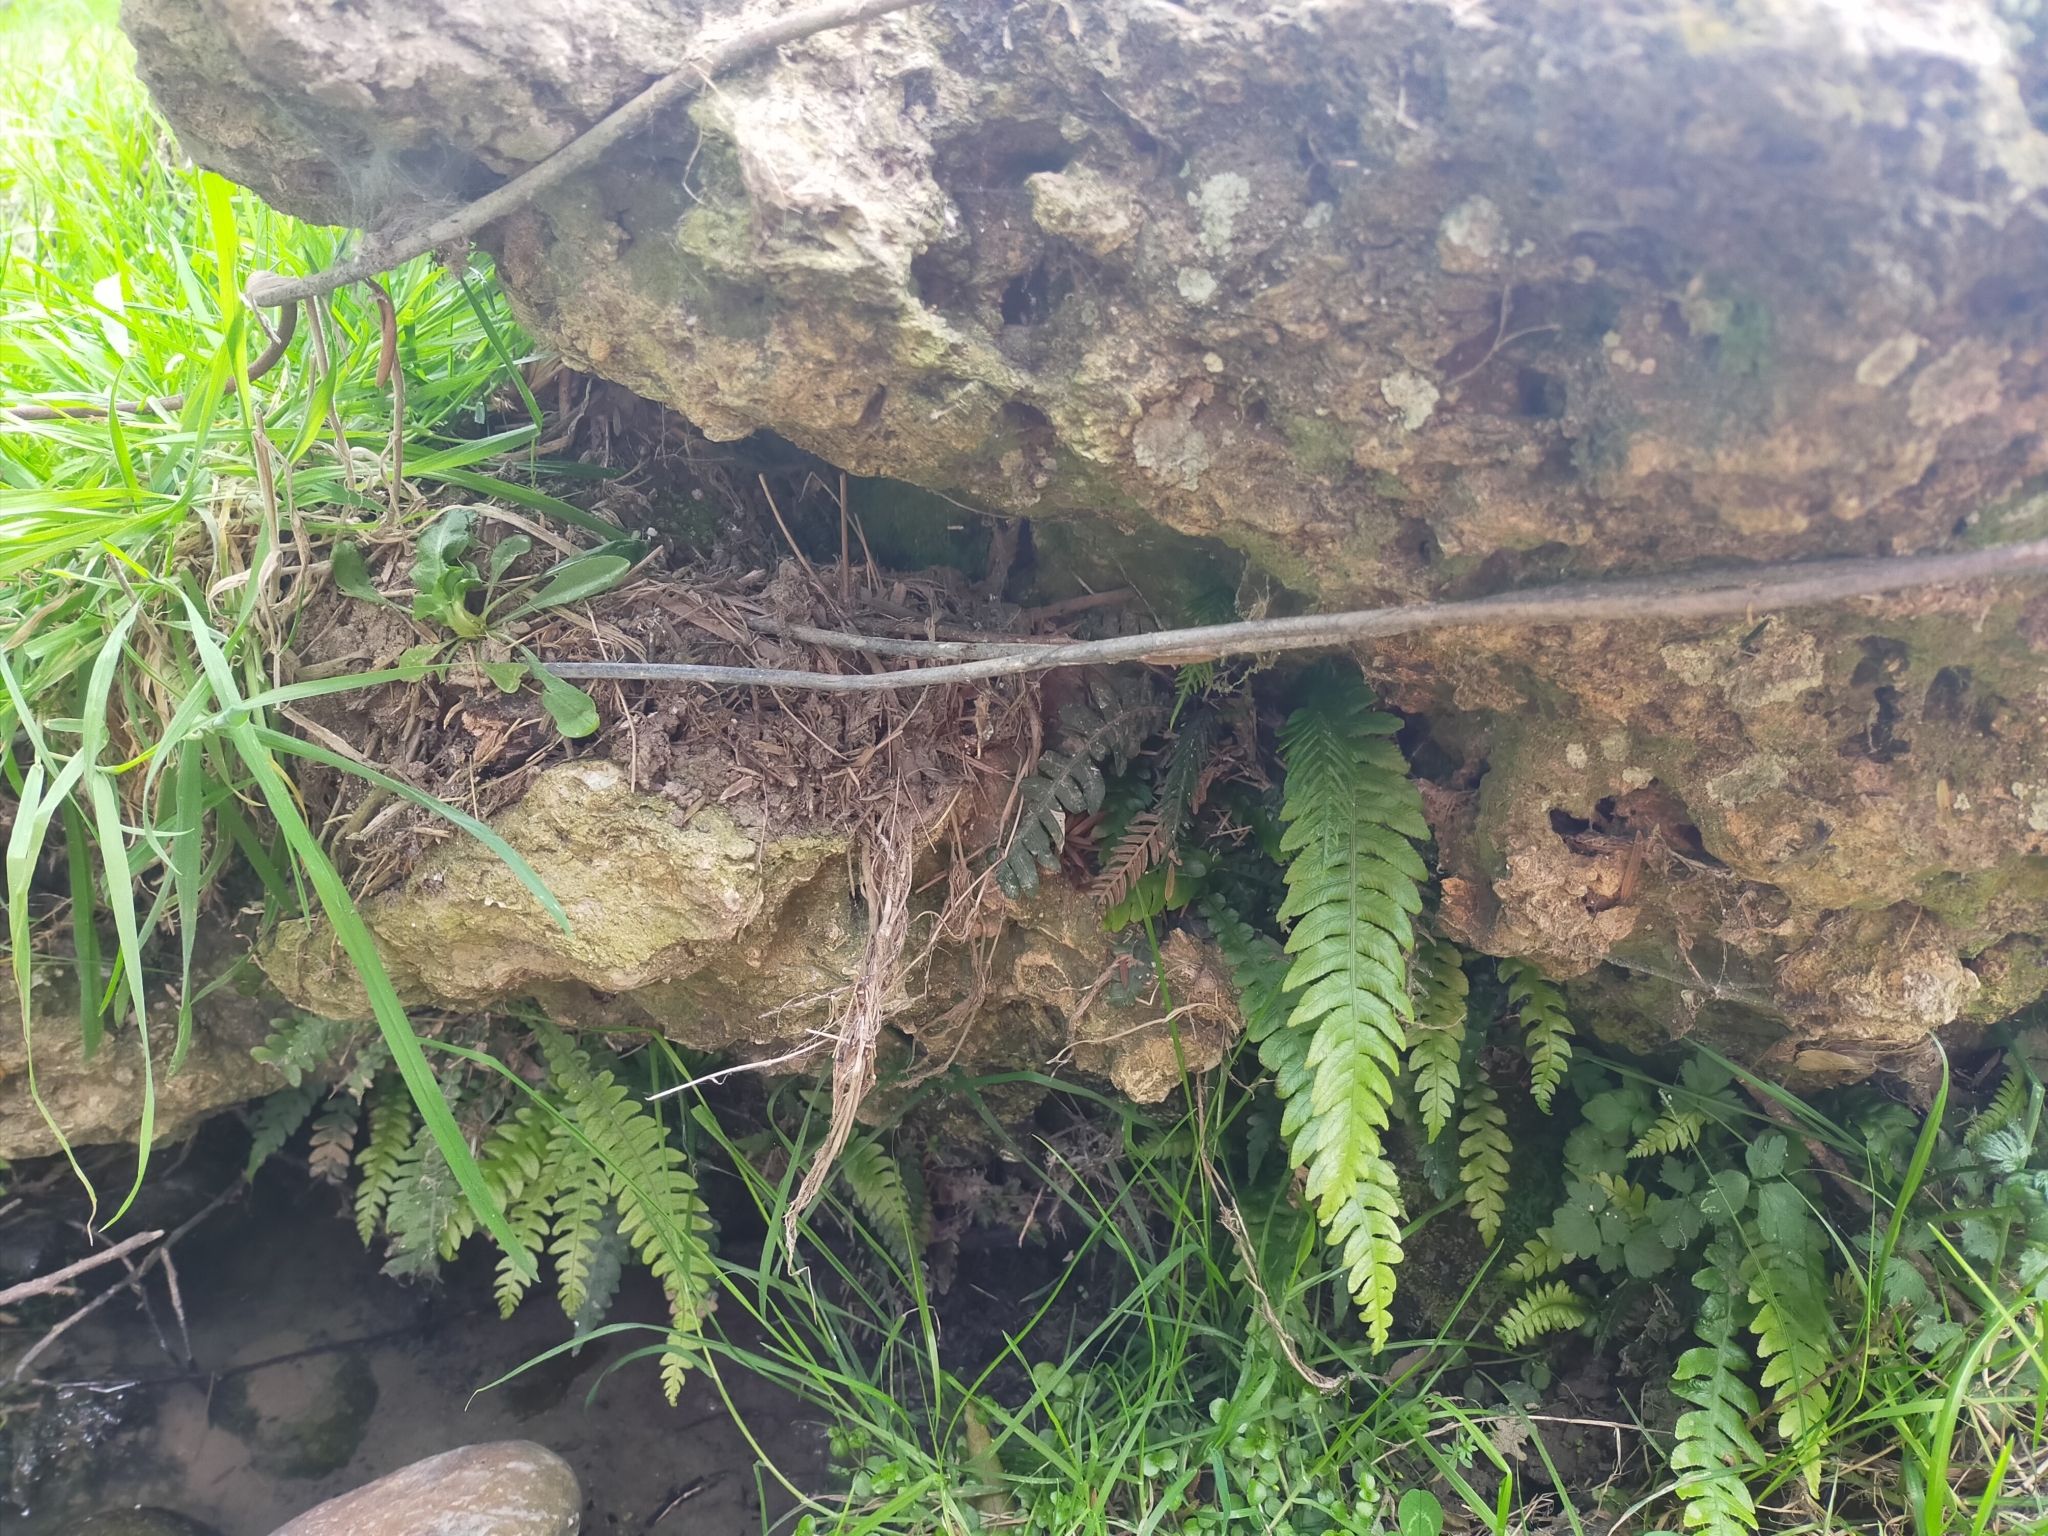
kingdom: Plantae
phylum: Tracheophyta
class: Polypodiopsida
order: Polypodiales
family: Blechnaceae
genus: Austroblechnum
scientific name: Austroblechnum lanceolatum
